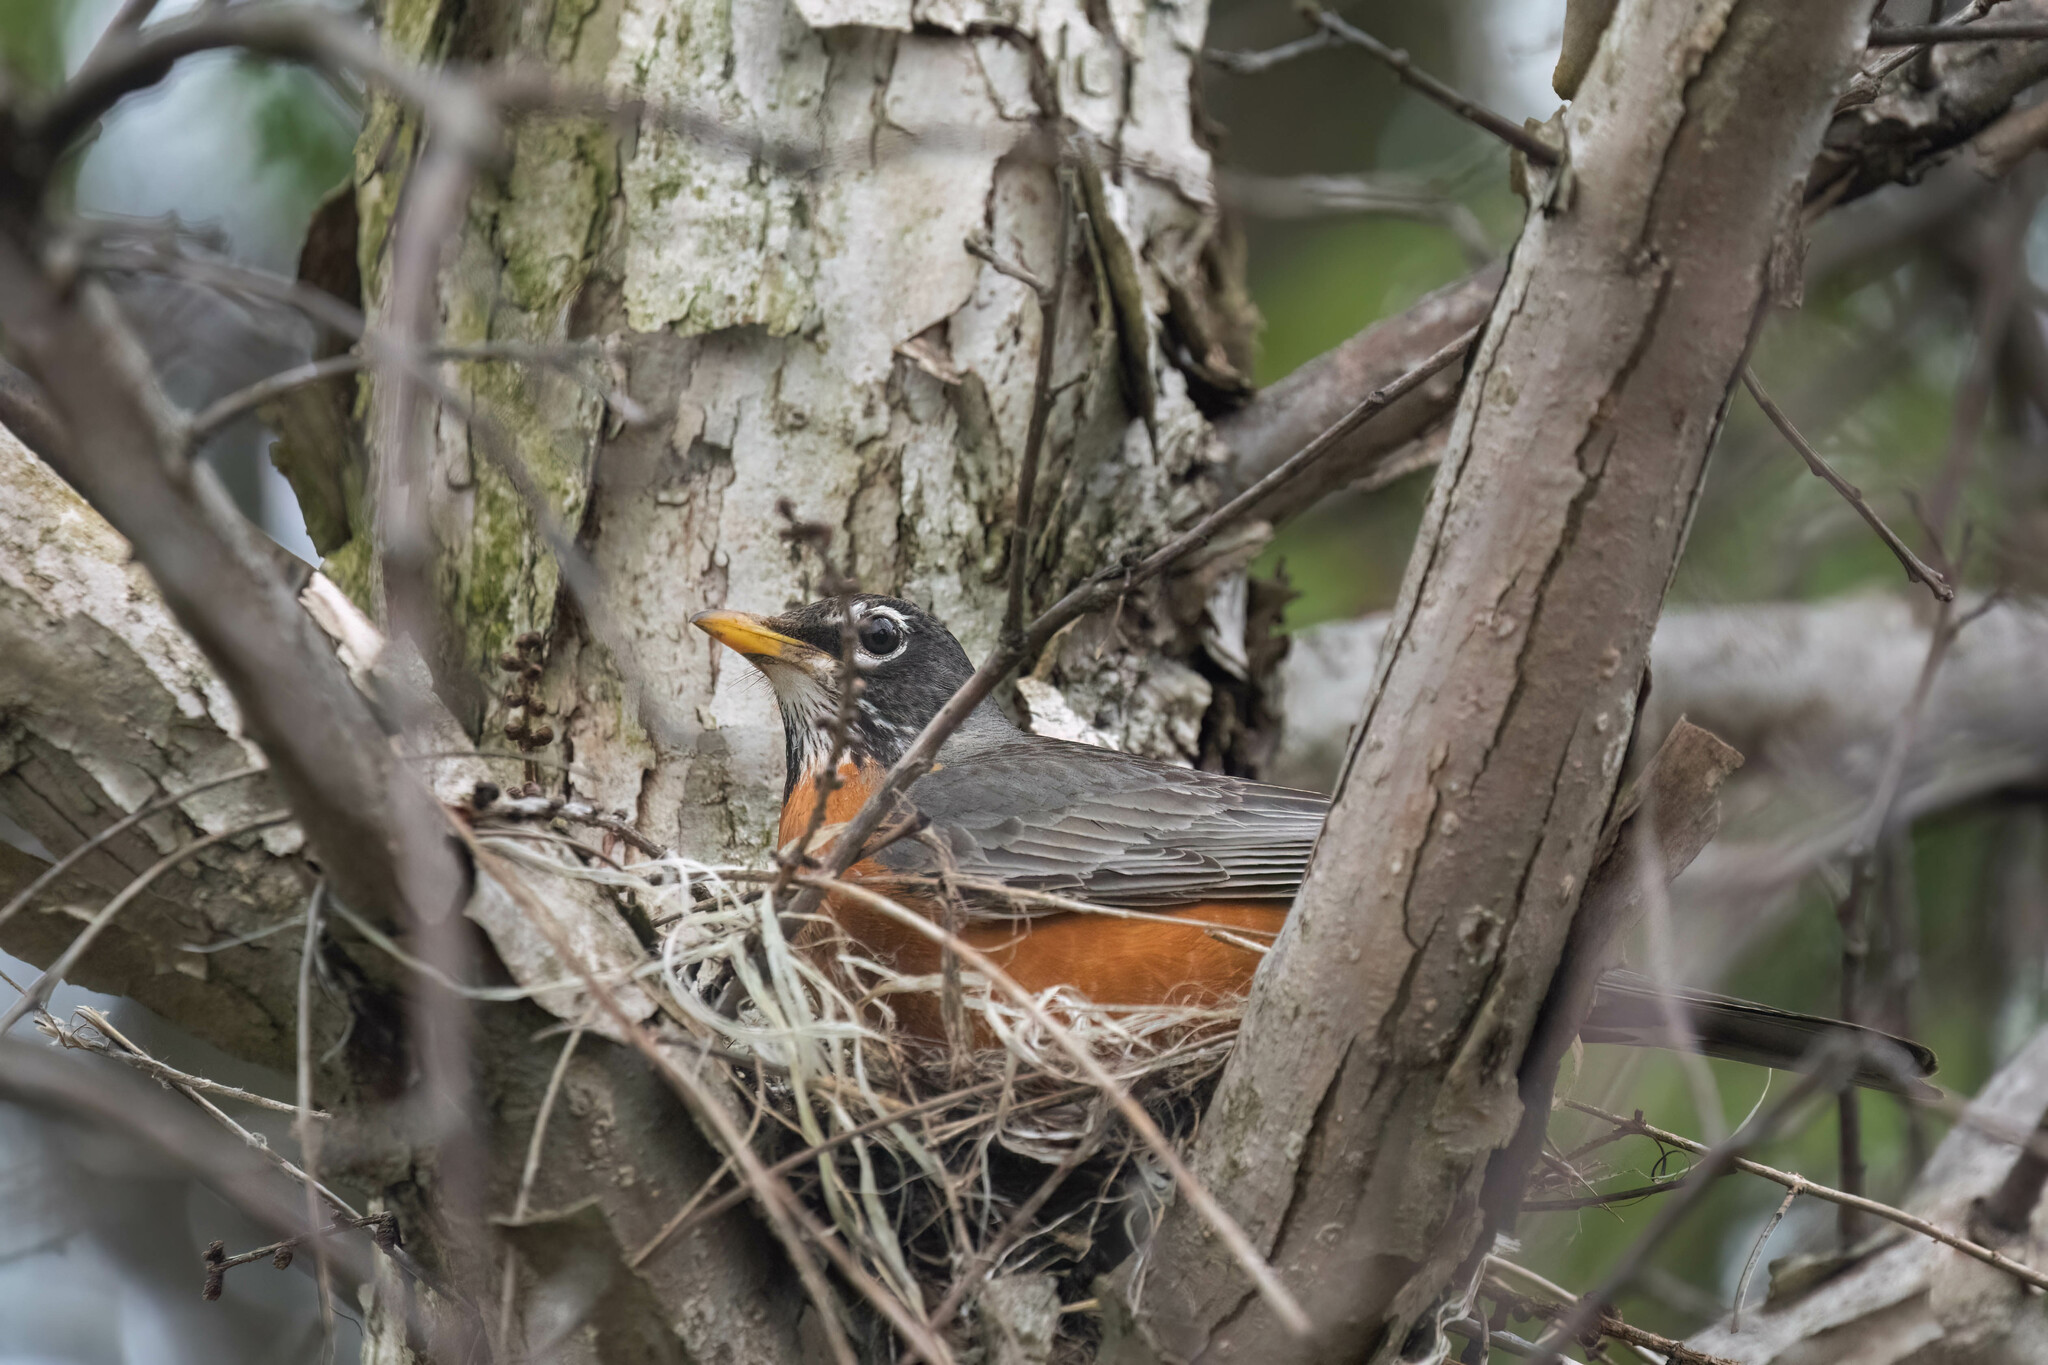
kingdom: Animalia
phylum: Chordata
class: Aves
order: Passeriformes
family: Turdidae
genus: Turdus
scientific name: Turdus migratorius
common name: American robin
